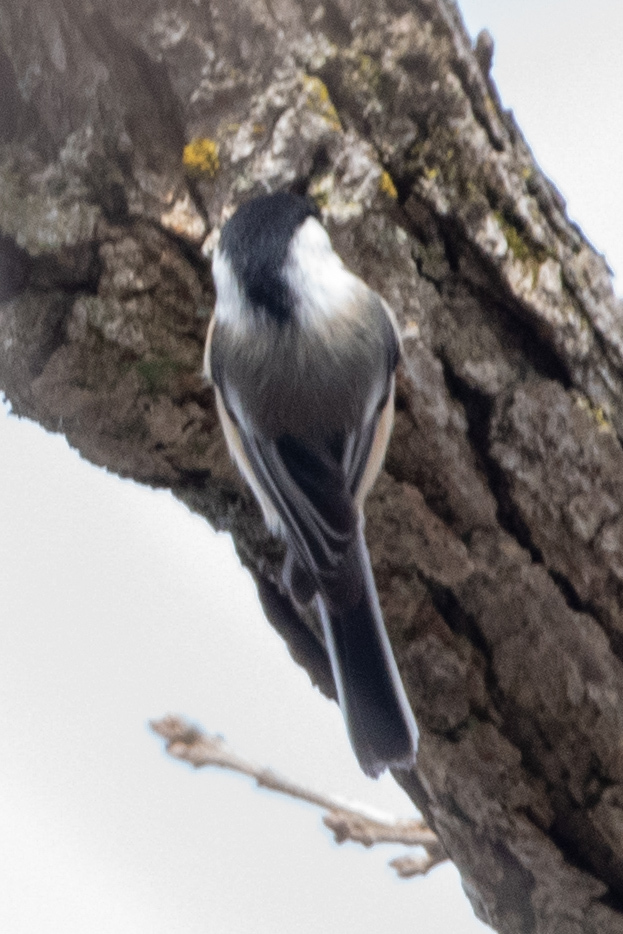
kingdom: Animalia
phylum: Chordata
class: Aves
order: Passeriformes
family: Paridae
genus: Poecile
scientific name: Poecile atricapillus
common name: Black-capped chickadee
